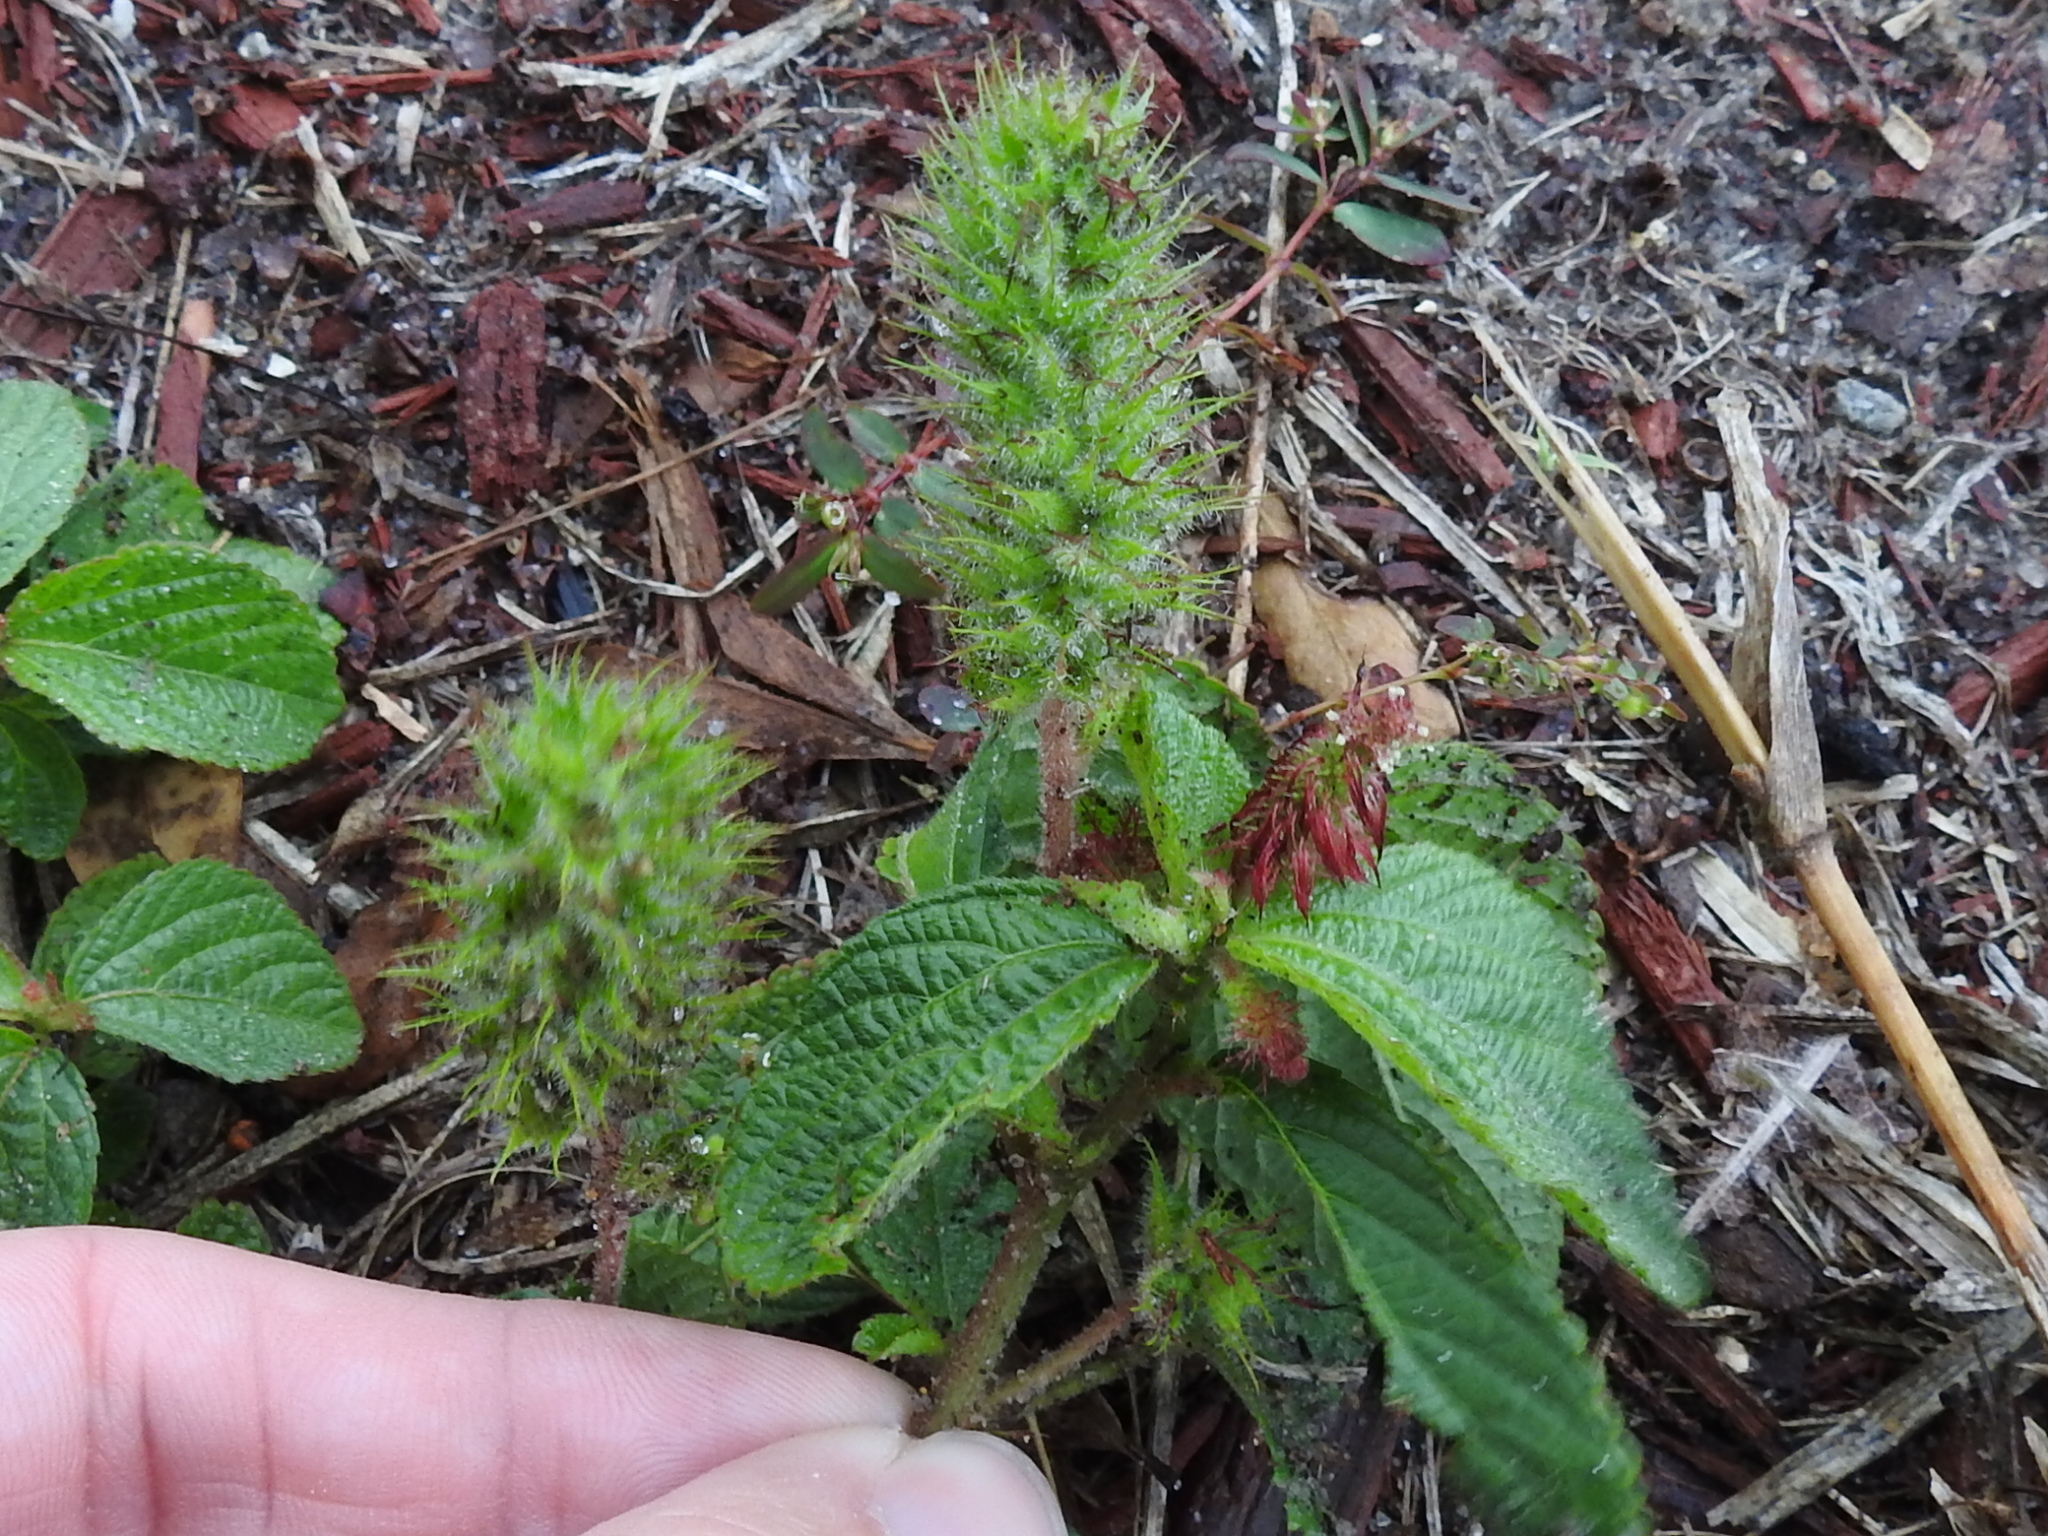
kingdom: Plantae
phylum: Tracheophyta
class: Magnoliopsida
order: Malpighiales
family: Euphorbiaceae
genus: Acalypha
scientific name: Acalypha arvensis
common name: Field copperleaf
